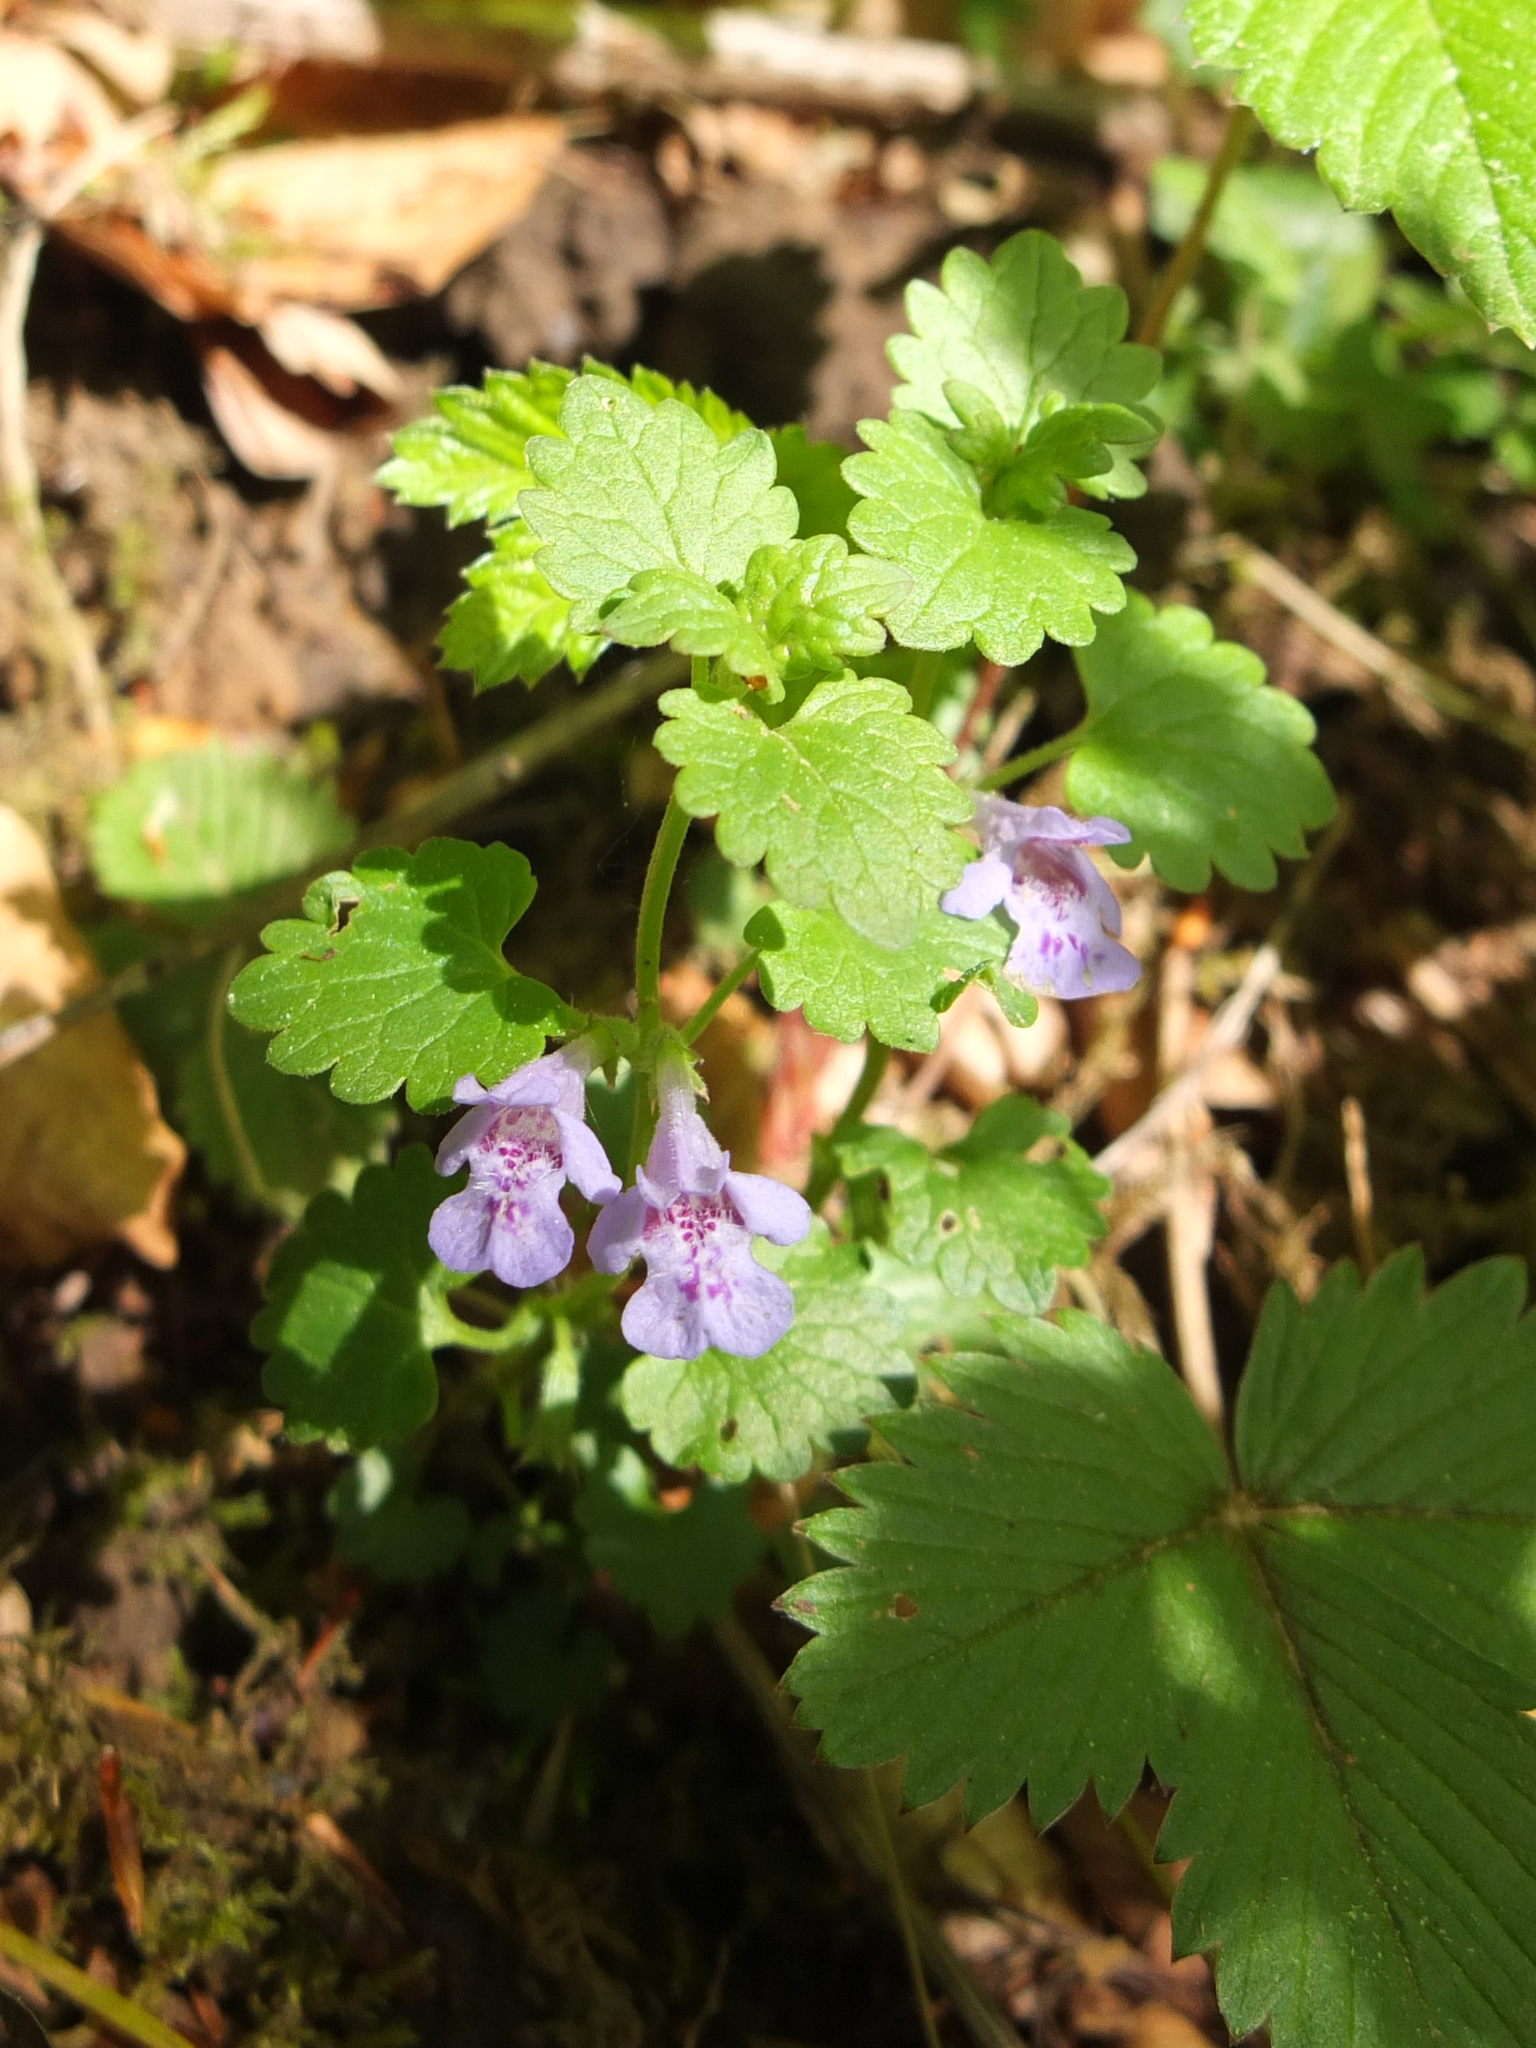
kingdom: Plantae
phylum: Tracheophyta
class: Magnoliopsida
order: Lamiales
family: Lamiaceae
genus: Glechoma
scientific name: Glechoma hederacea
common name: Ground ivy
